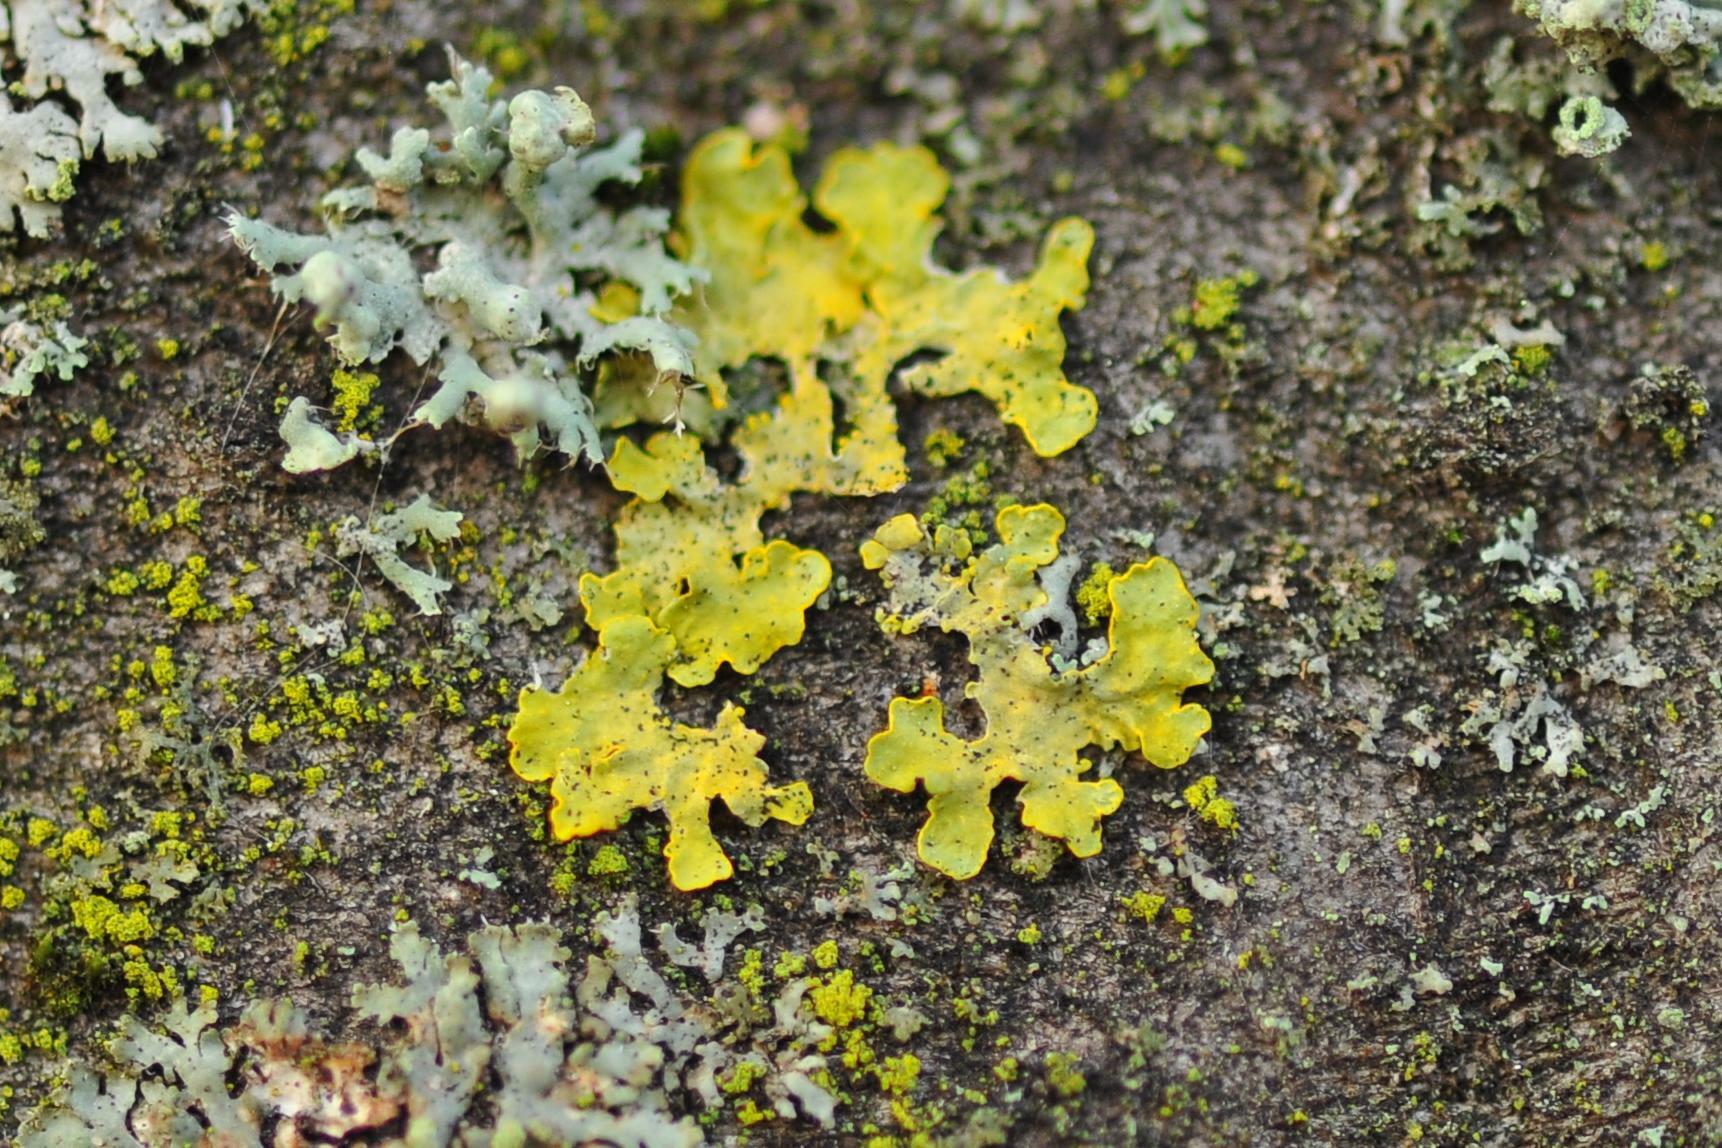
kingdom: Fungi
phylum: Ascomycota
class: Lecanoromycetes
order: Teloschistales
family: Teloschistaceae
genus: Xanthoria
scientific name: Xanthoria parietina
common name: Common orange lichen
